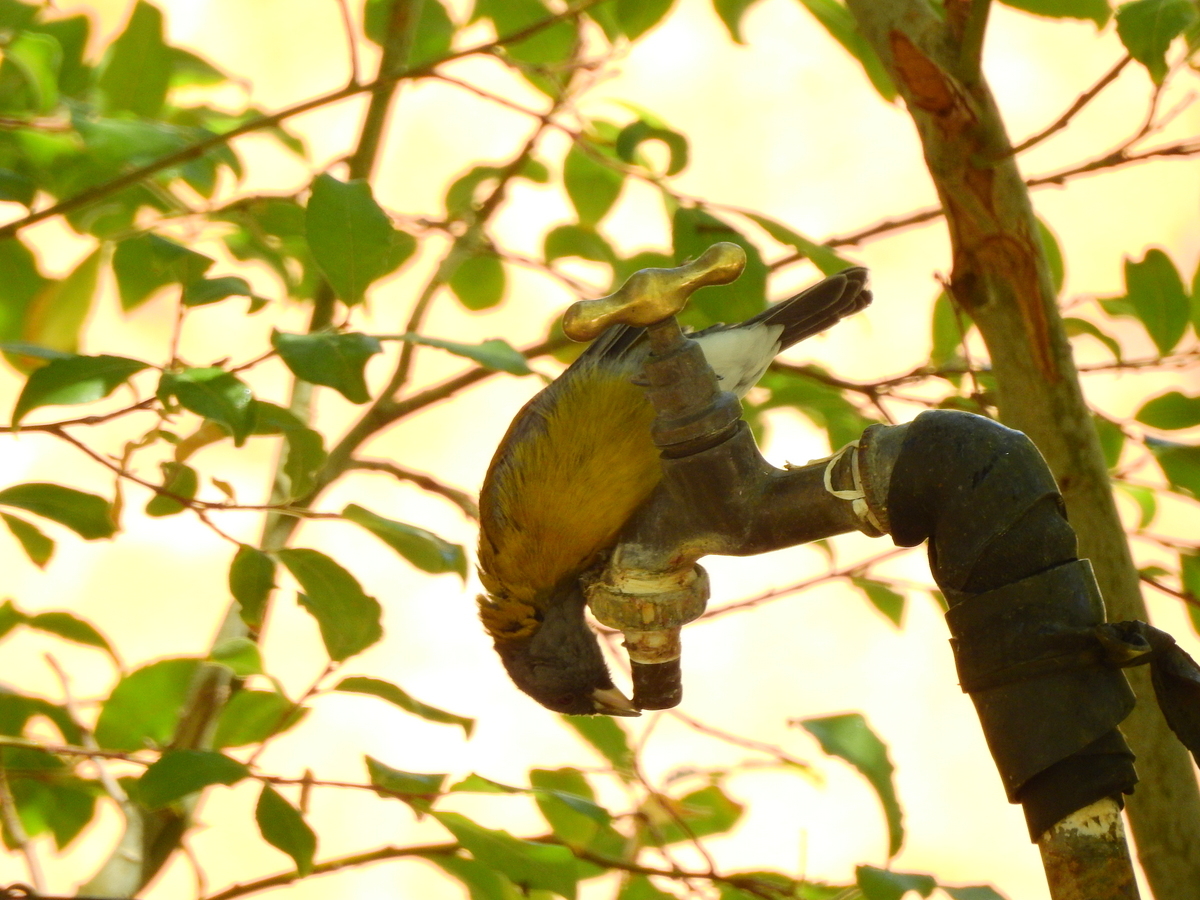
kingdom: Animalia
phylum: Chordata
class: Aves
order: Passeriformes
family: Thraupidae
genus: Phrygilus
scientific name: Phrygilus gayi
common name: Grey-hooded sierra finch
